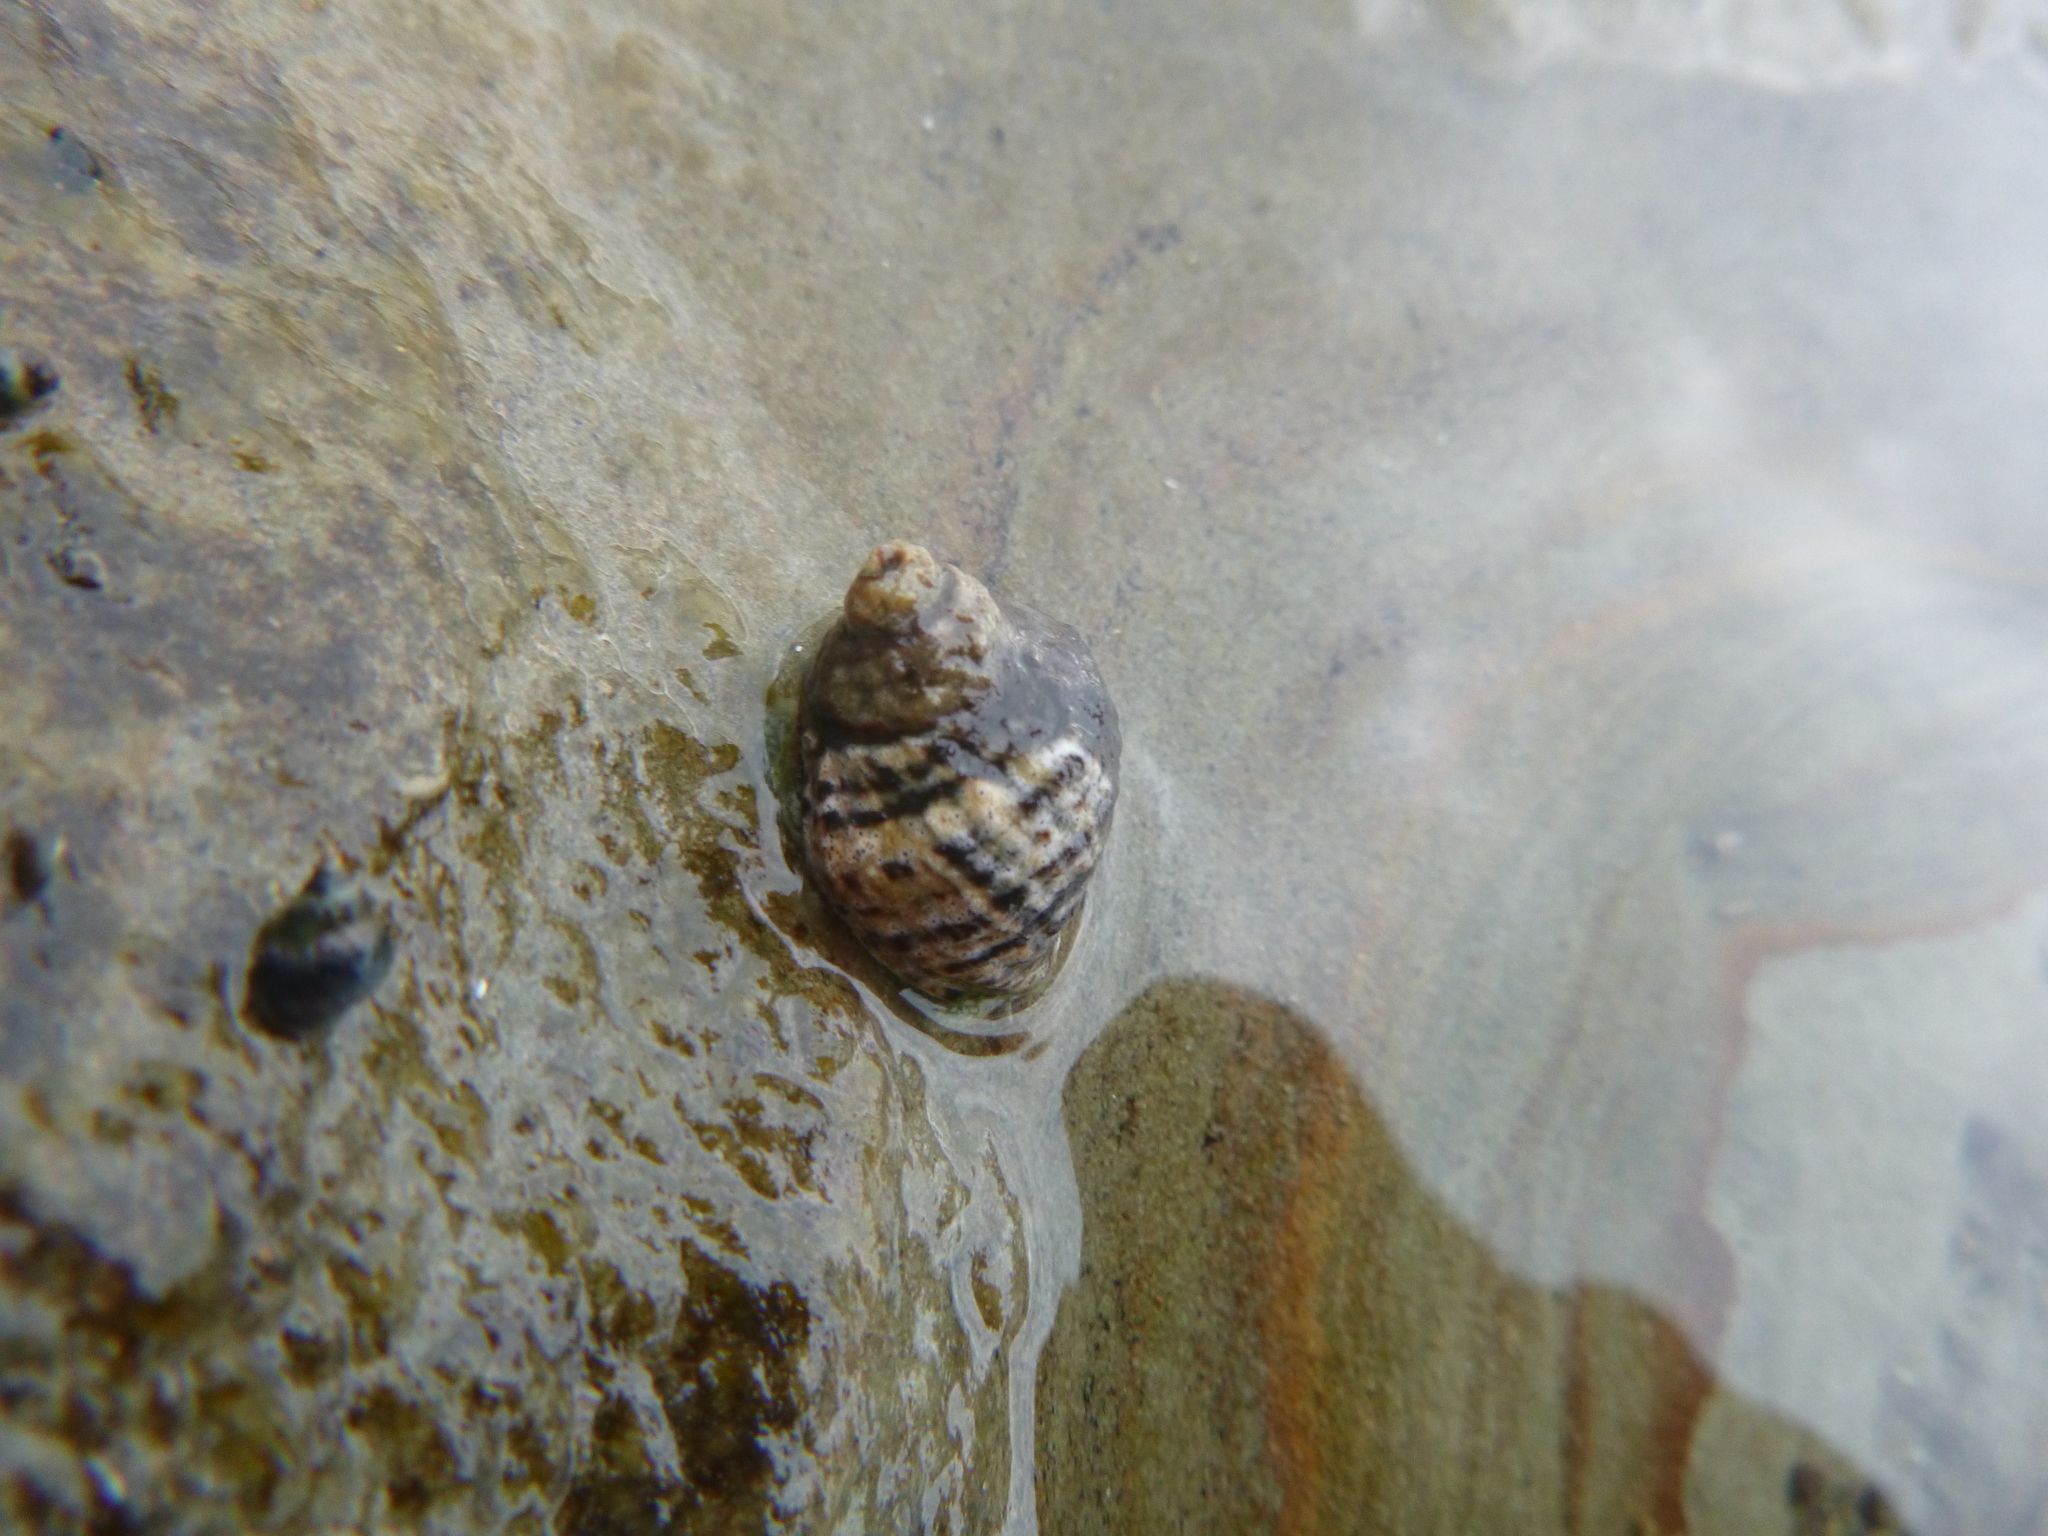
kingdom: Animalia
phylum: Mollusca
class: Gastropoda
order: Neogastropoda
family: Muricidae
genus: Haustrum
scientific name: Haustrum albomarginatum
